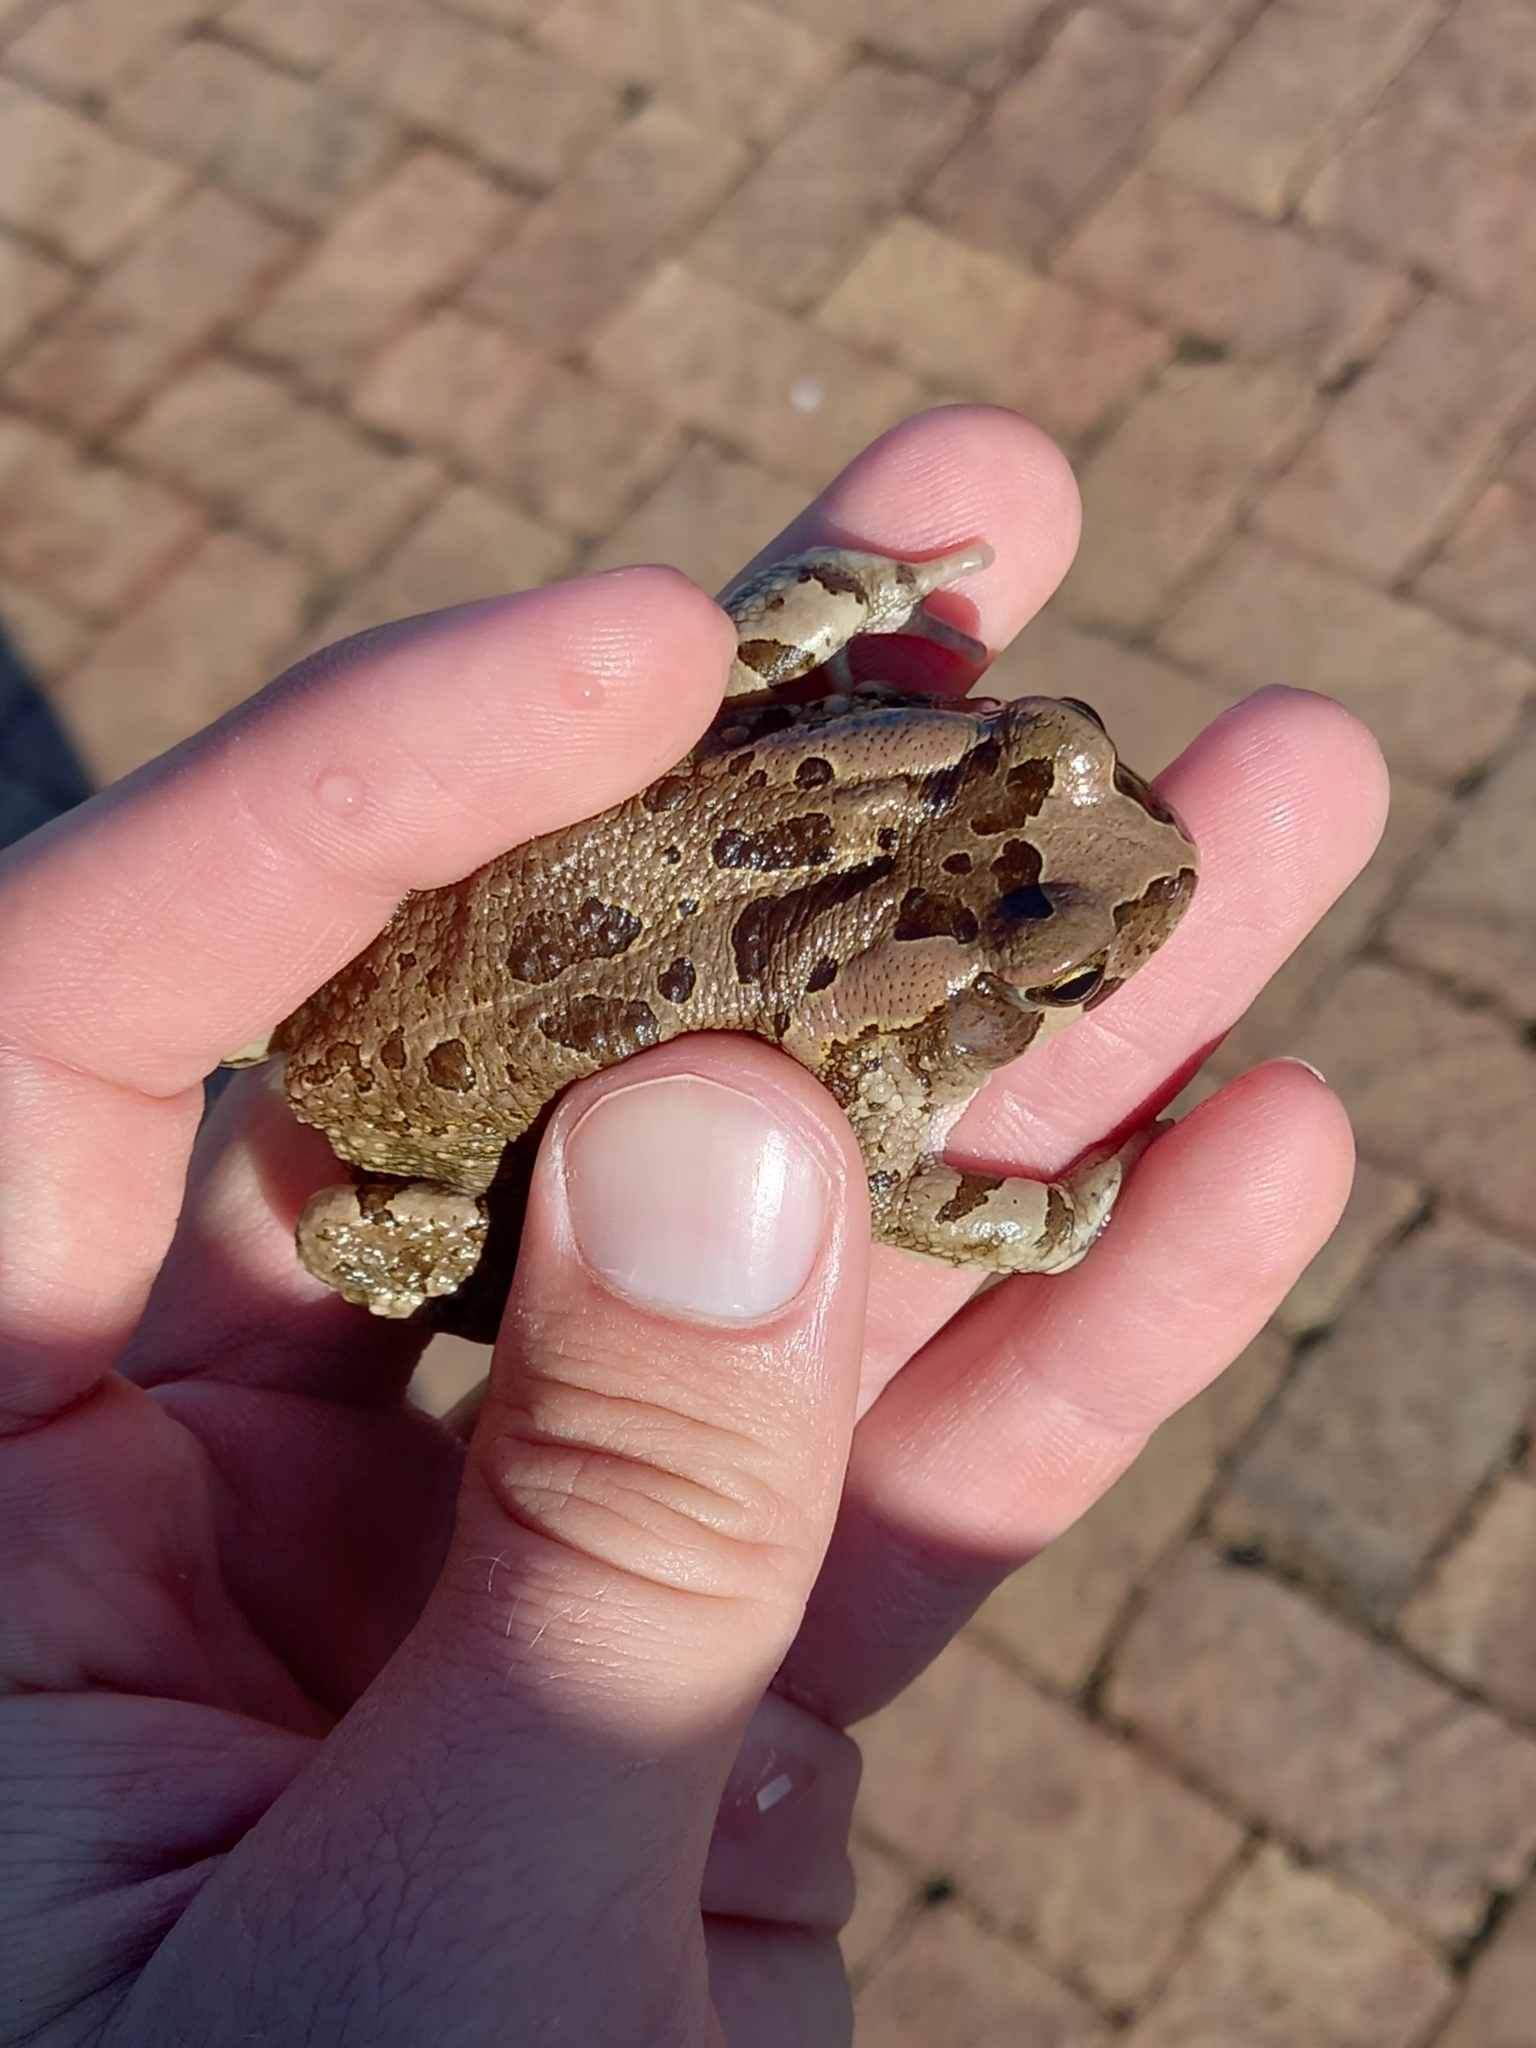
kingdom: Animalia
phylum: Chordata
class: Amphibia
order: Anura
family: Bufonidae
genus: Sclerophrys
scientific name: Sclerophrys capensis
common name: Ranger’s toad
